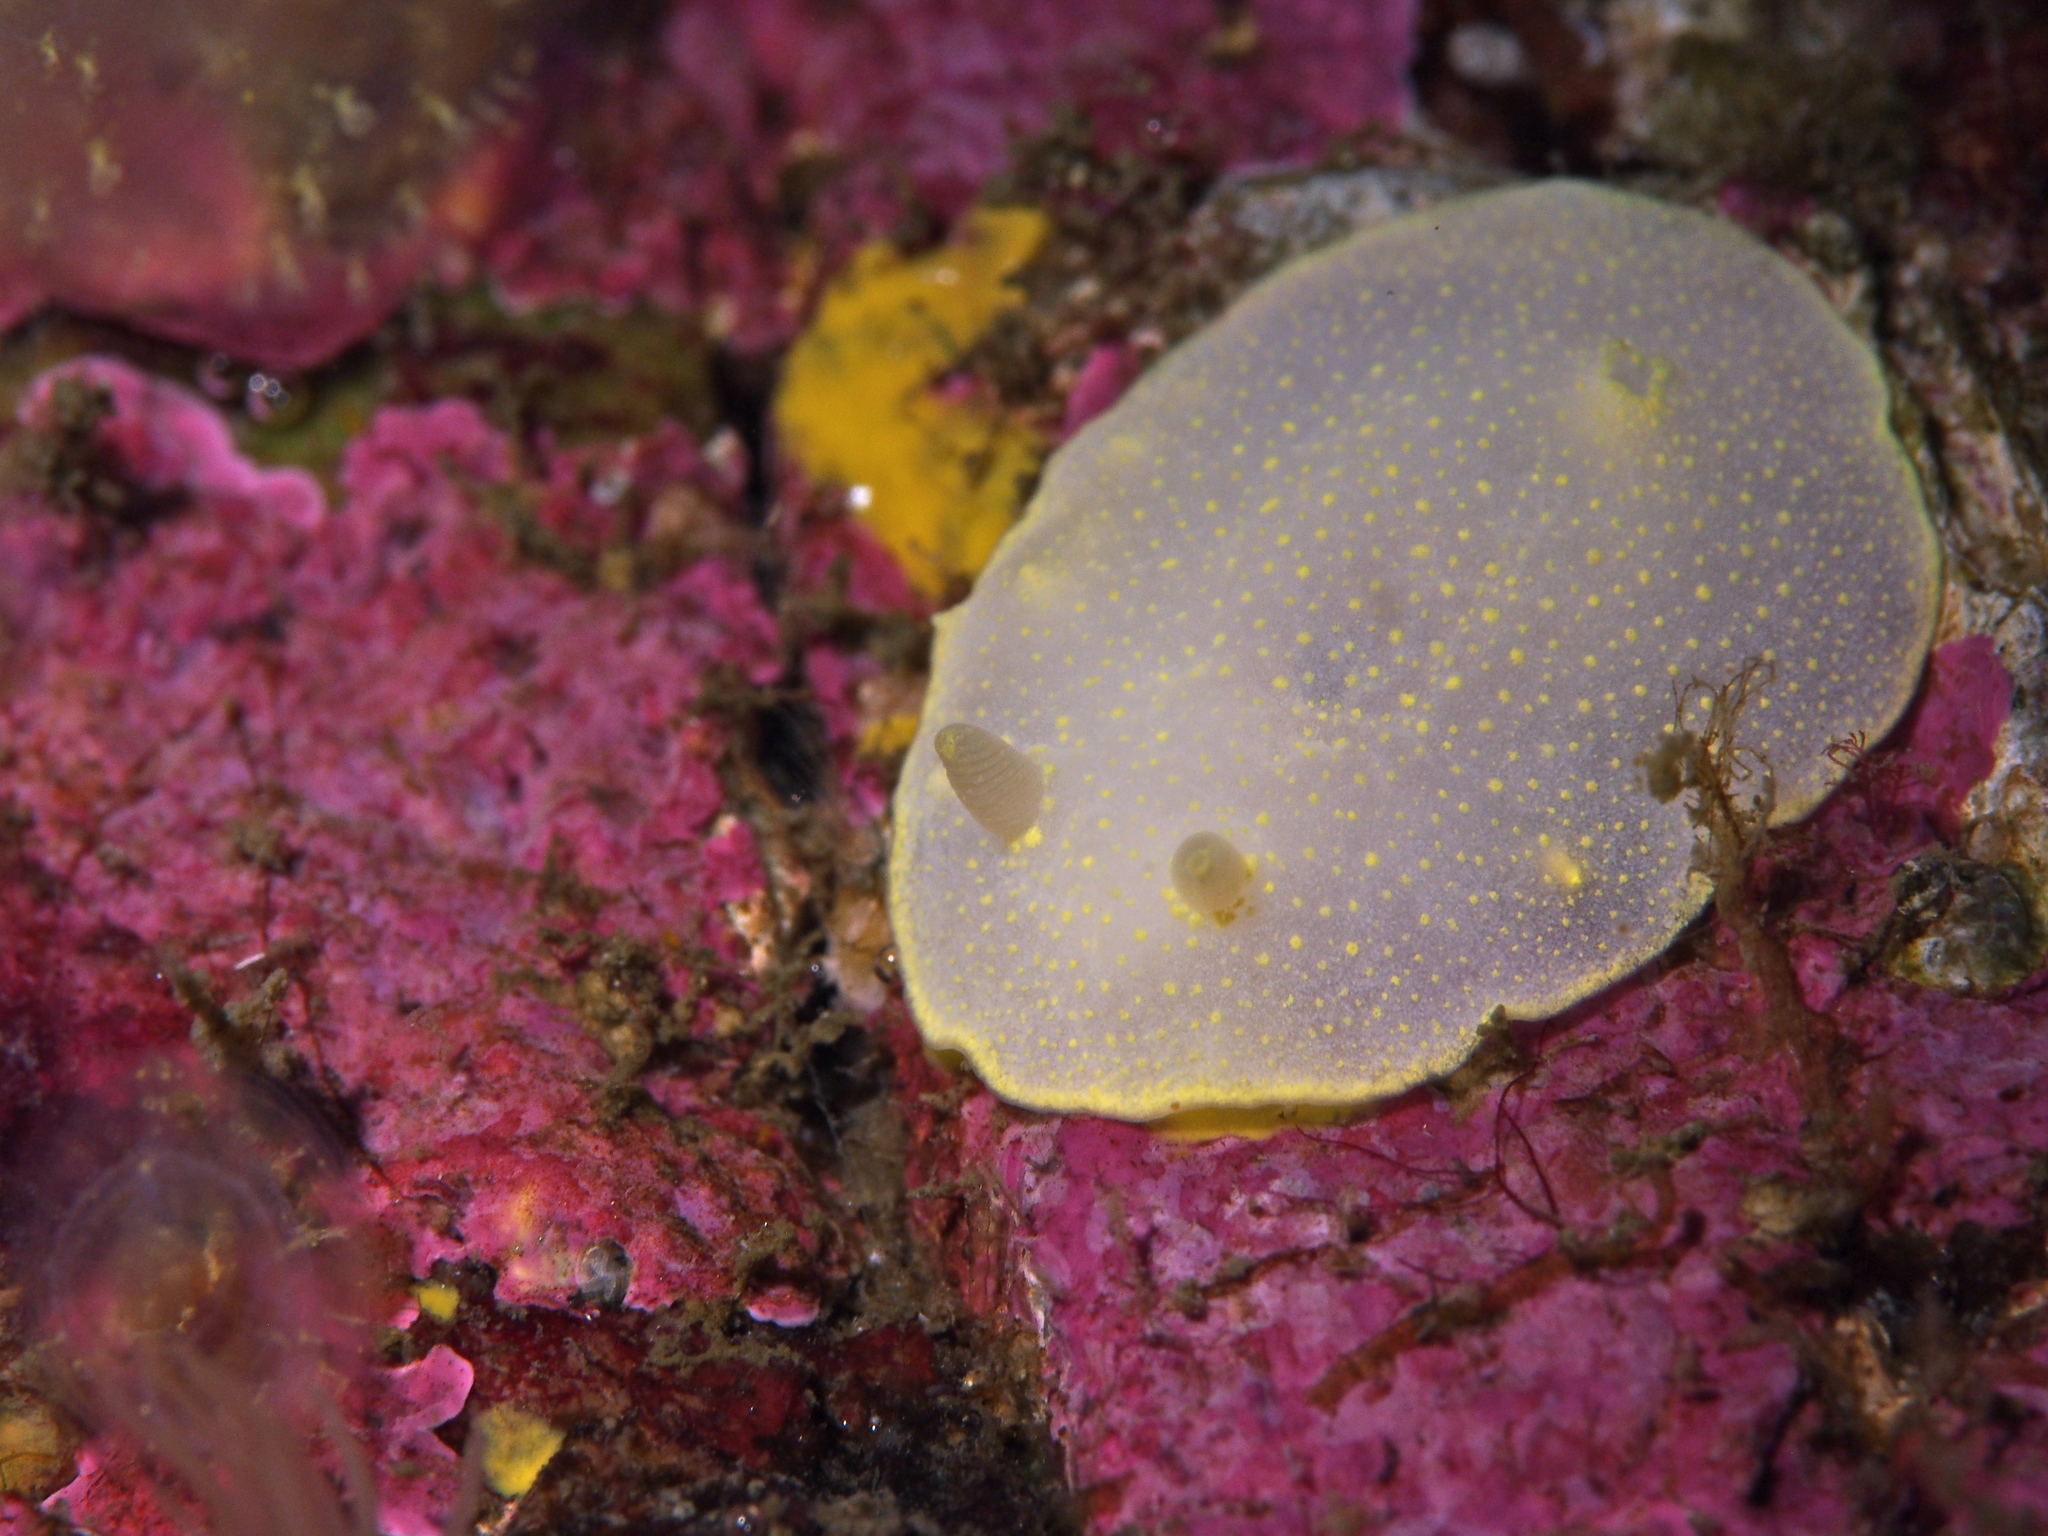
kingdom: Animalia
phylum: Mollusca
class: Gastropoda
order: Nudibranchia
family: Cadlinidae
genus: Cadlina
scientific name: Cadlina laevis
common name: White atlantic cadlina
